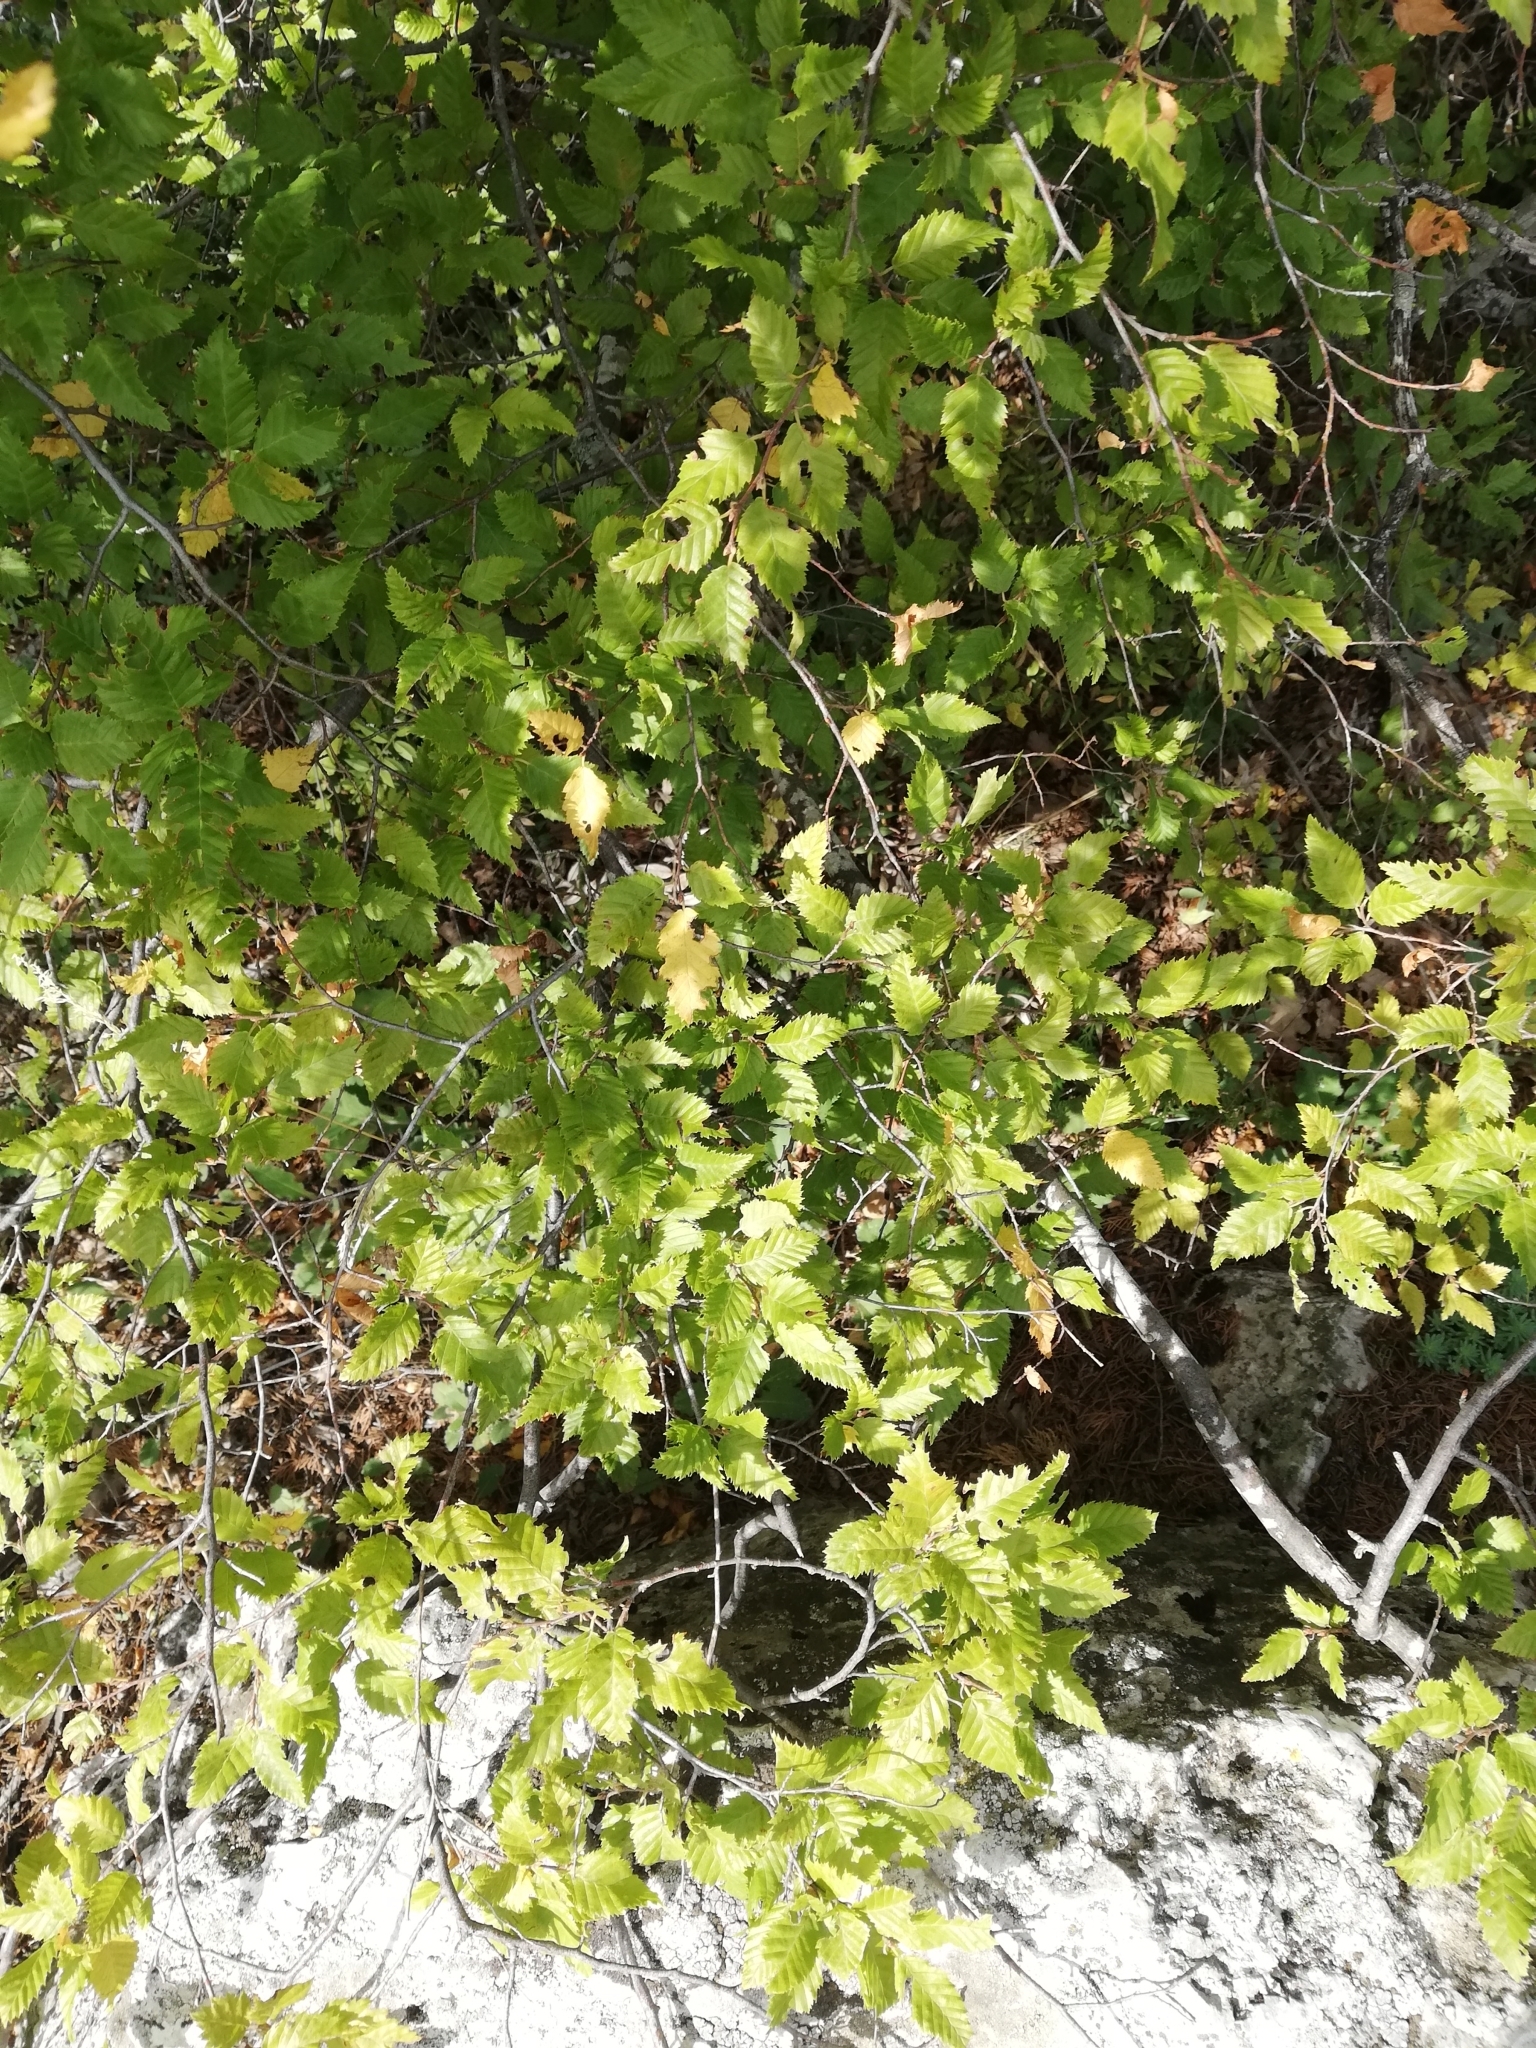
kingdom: Plantae
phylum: Tracheophyta
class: Magnoliopsida
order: Fagales
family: Betulaceae
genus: Carpinus
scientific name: Carpinus orientalis
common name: Eastern hornbeam
